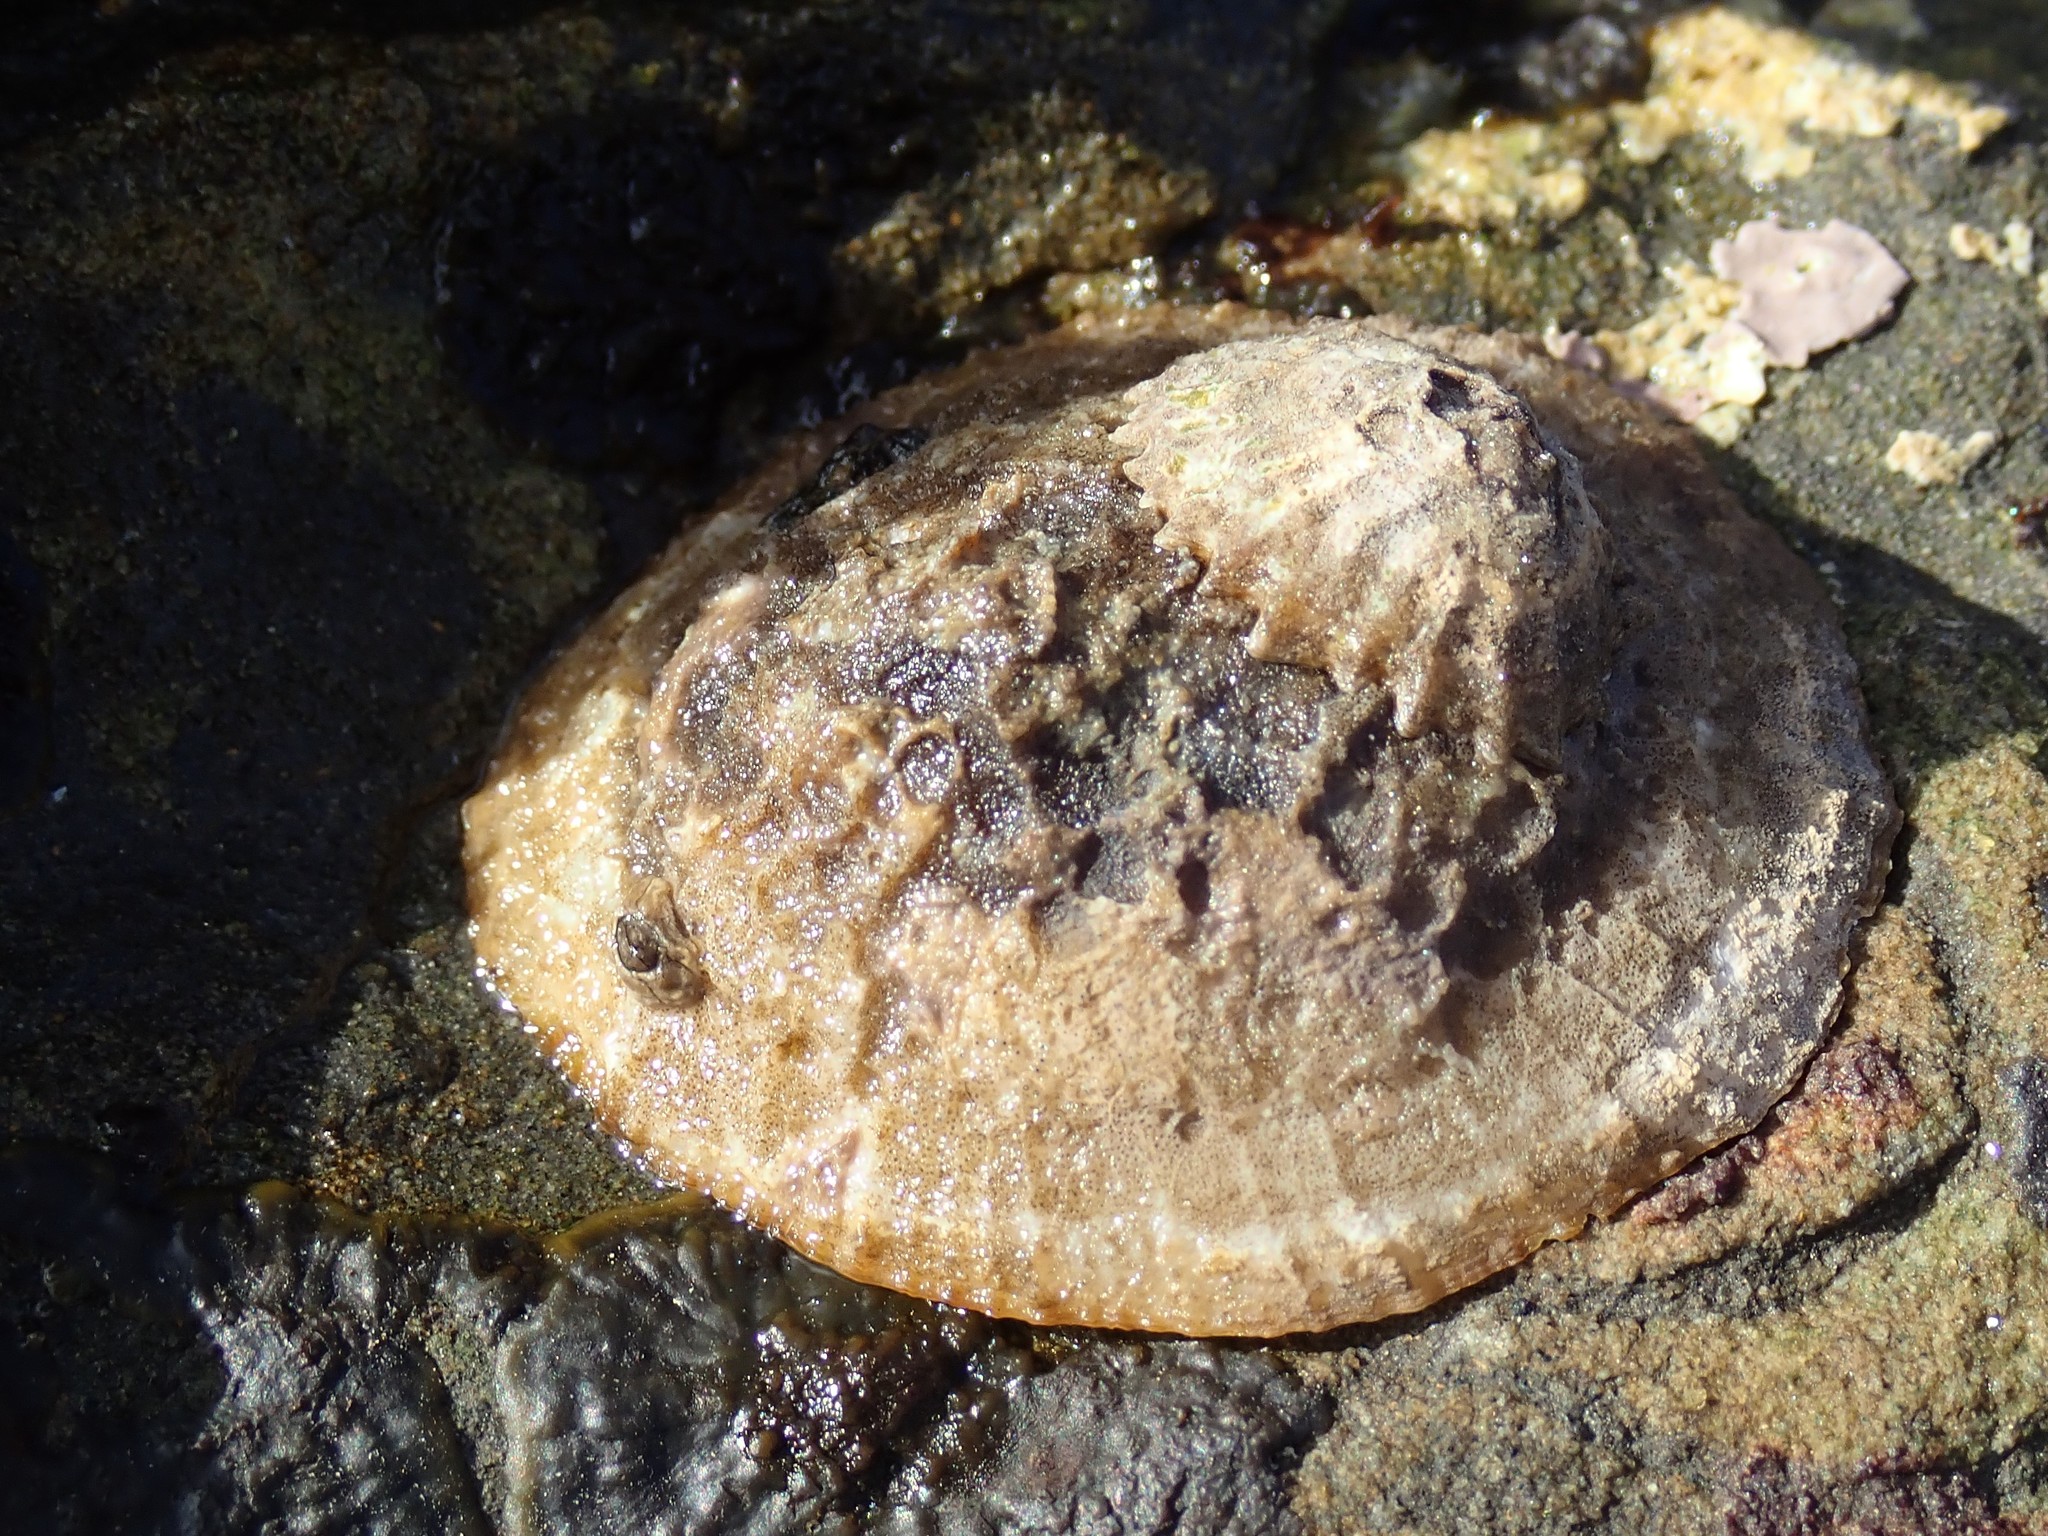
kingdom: Animalia
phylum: Mollusca
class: Gastropoda
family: Lottiidae
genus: Lottia
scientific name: Lottia gigantea
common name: Owl limpet
